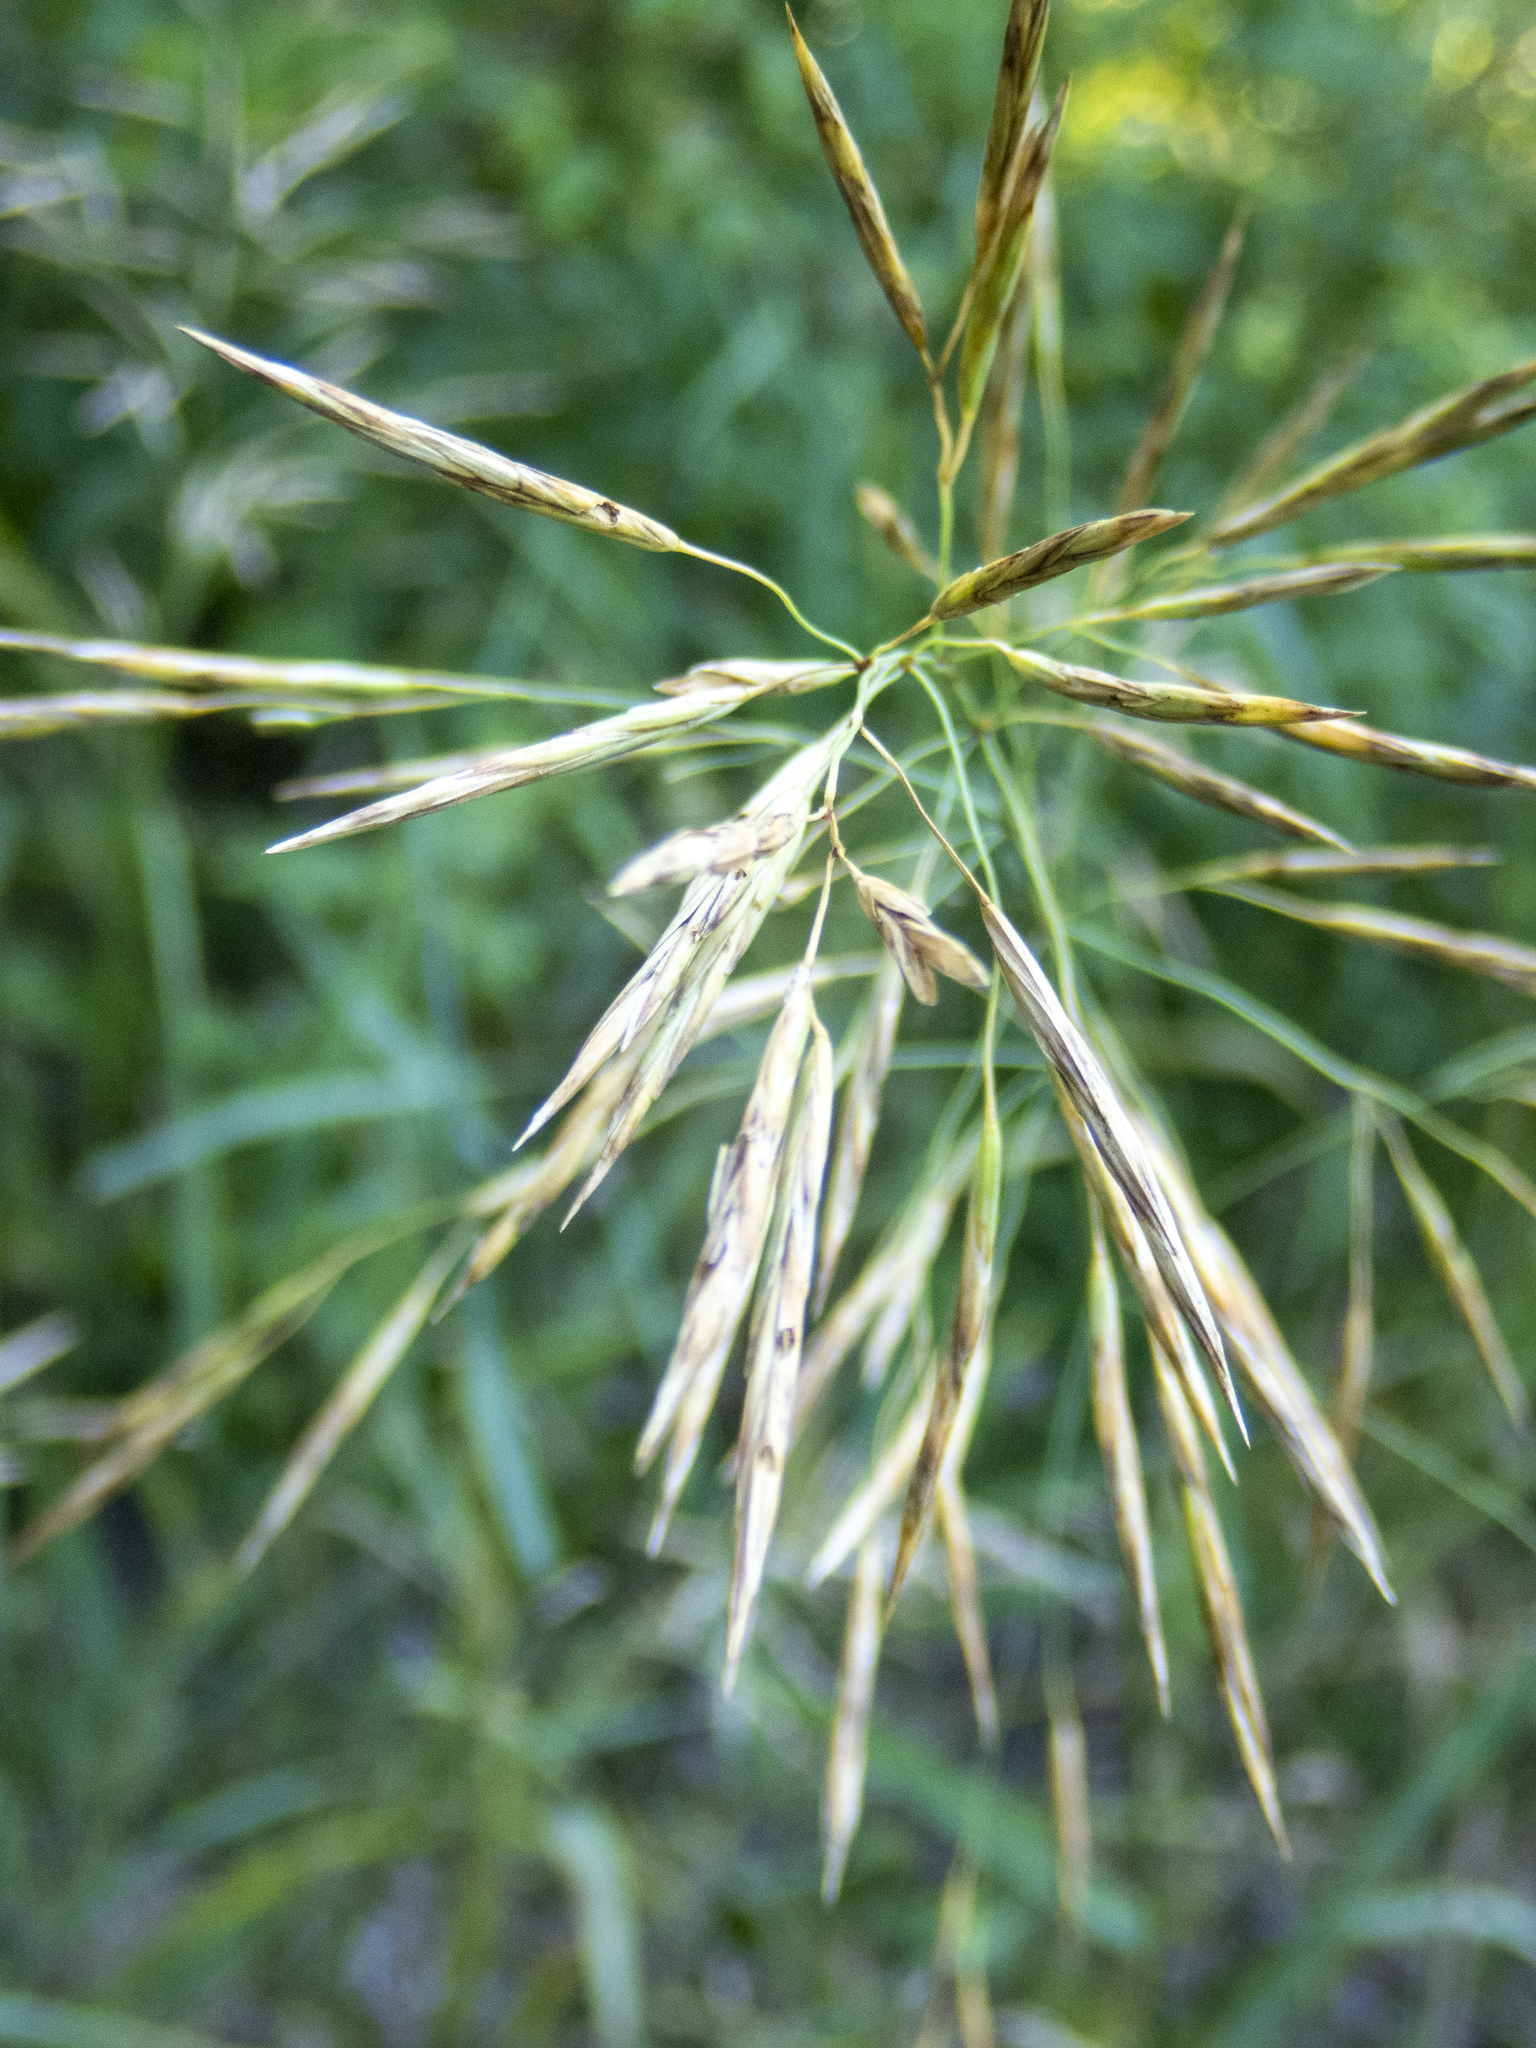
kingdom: Plantae
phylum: Tracheophyta
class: Liliopsida
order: Poales
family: Poaceae
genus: Bromus
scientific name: Bromus inermis
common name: Smooth brome
